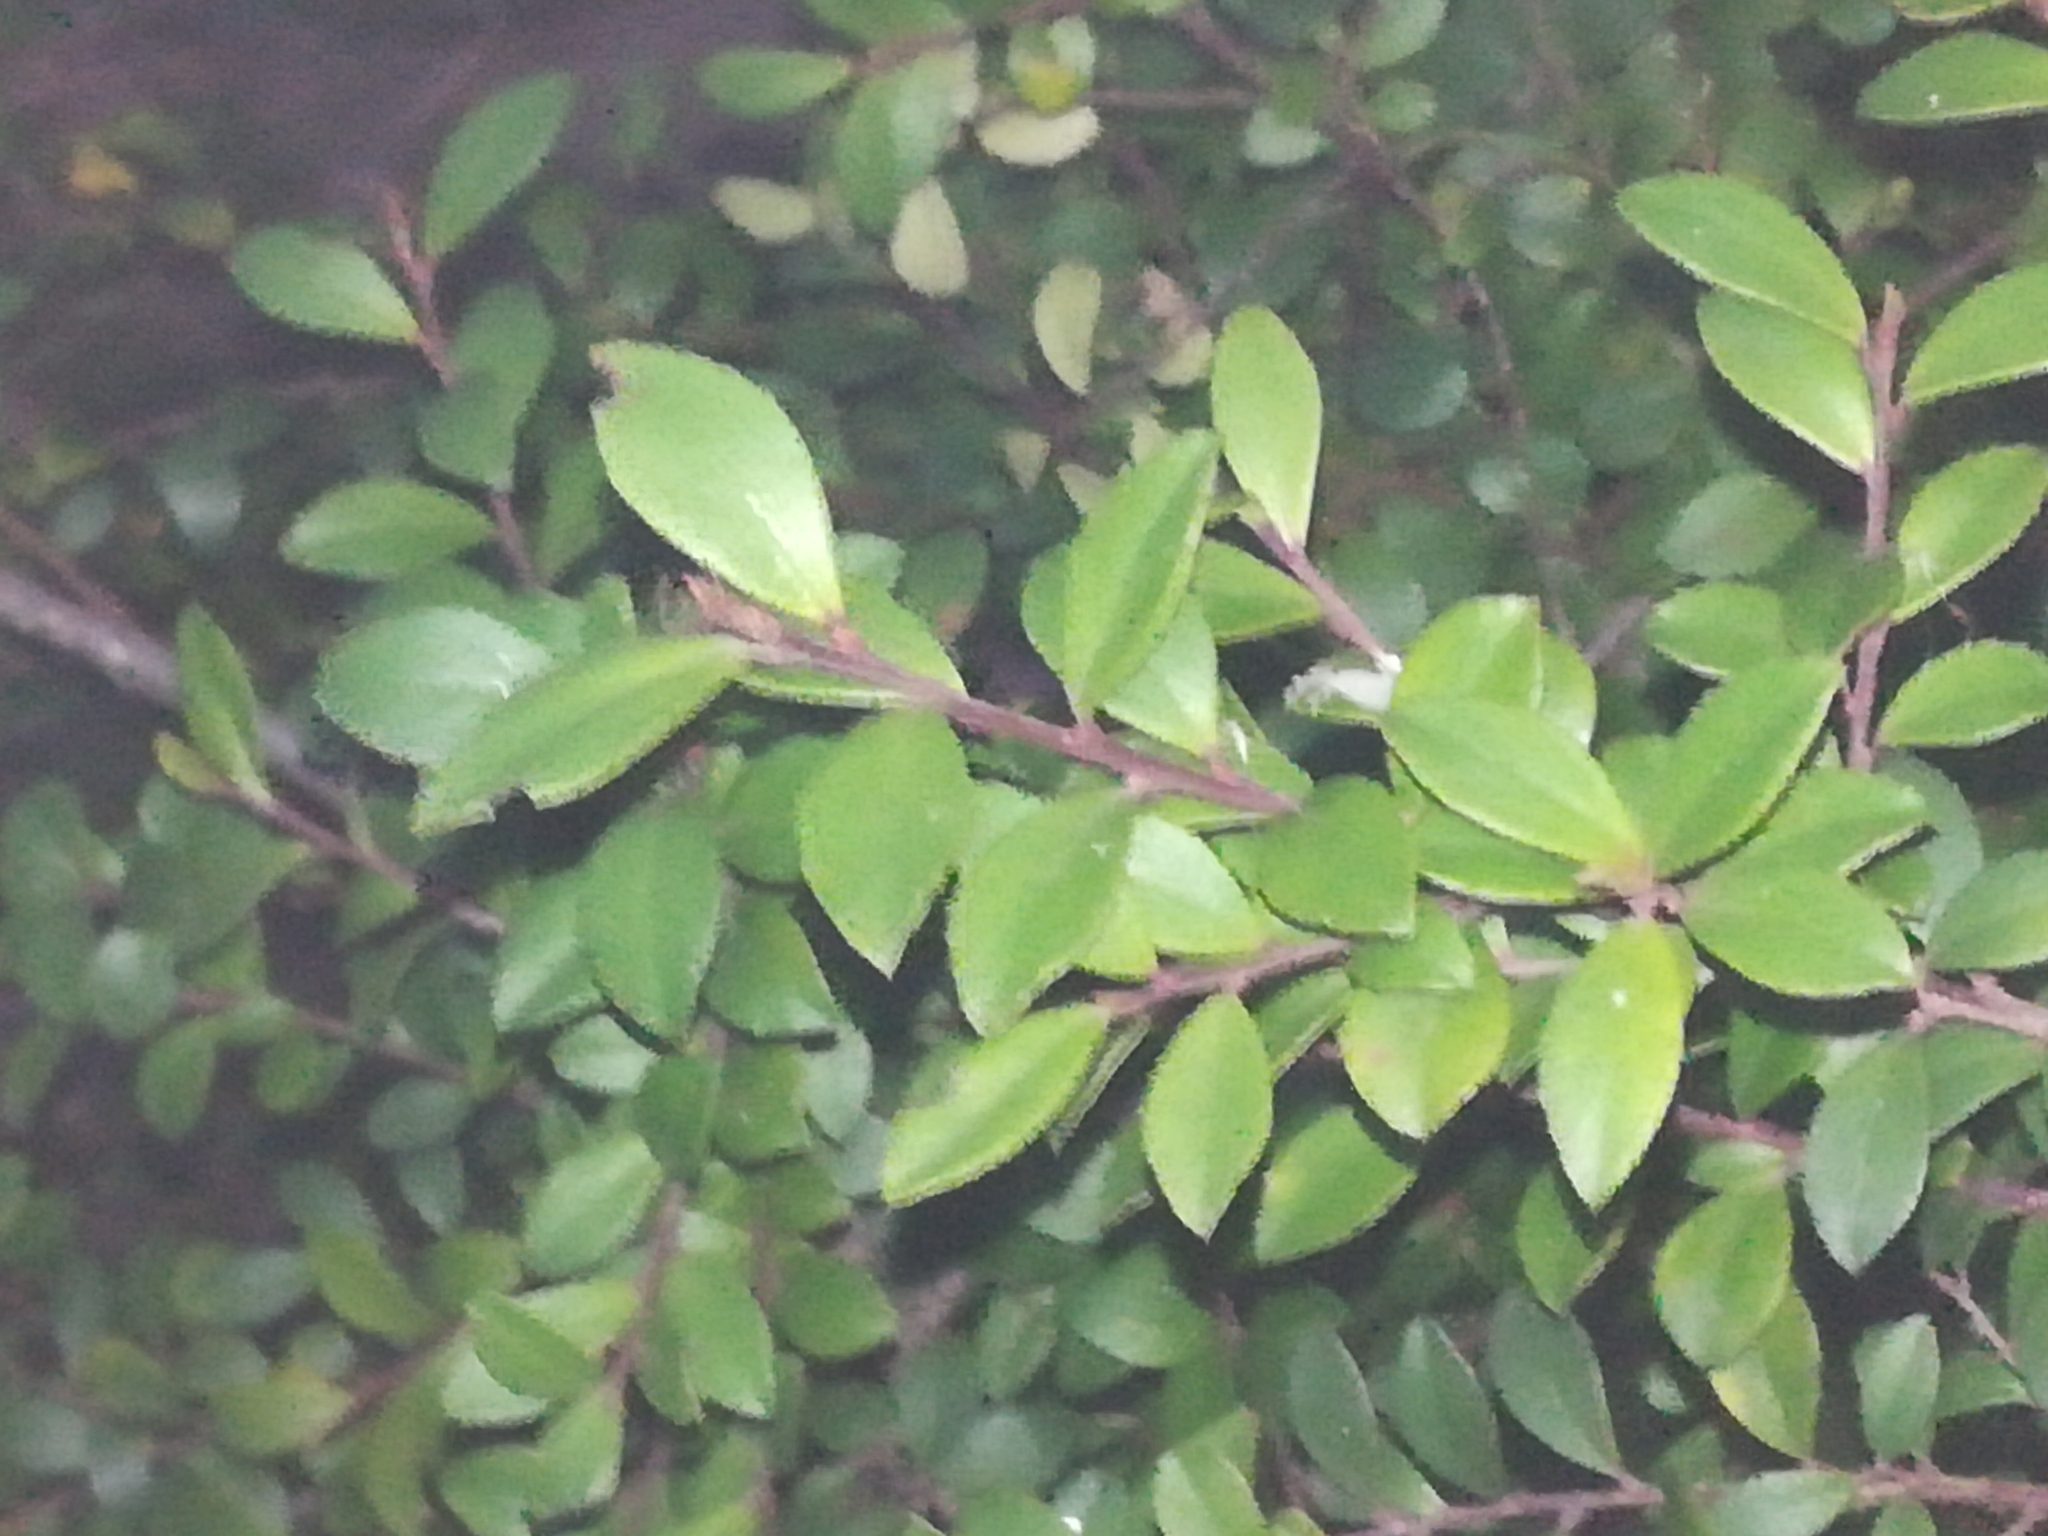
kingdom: Plantae
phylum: Tracheophyta
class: Magnoliopsida
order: Ericales
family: Primulaceae
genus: Myrsine
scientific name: Myrsine africana
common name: African-boxwood
